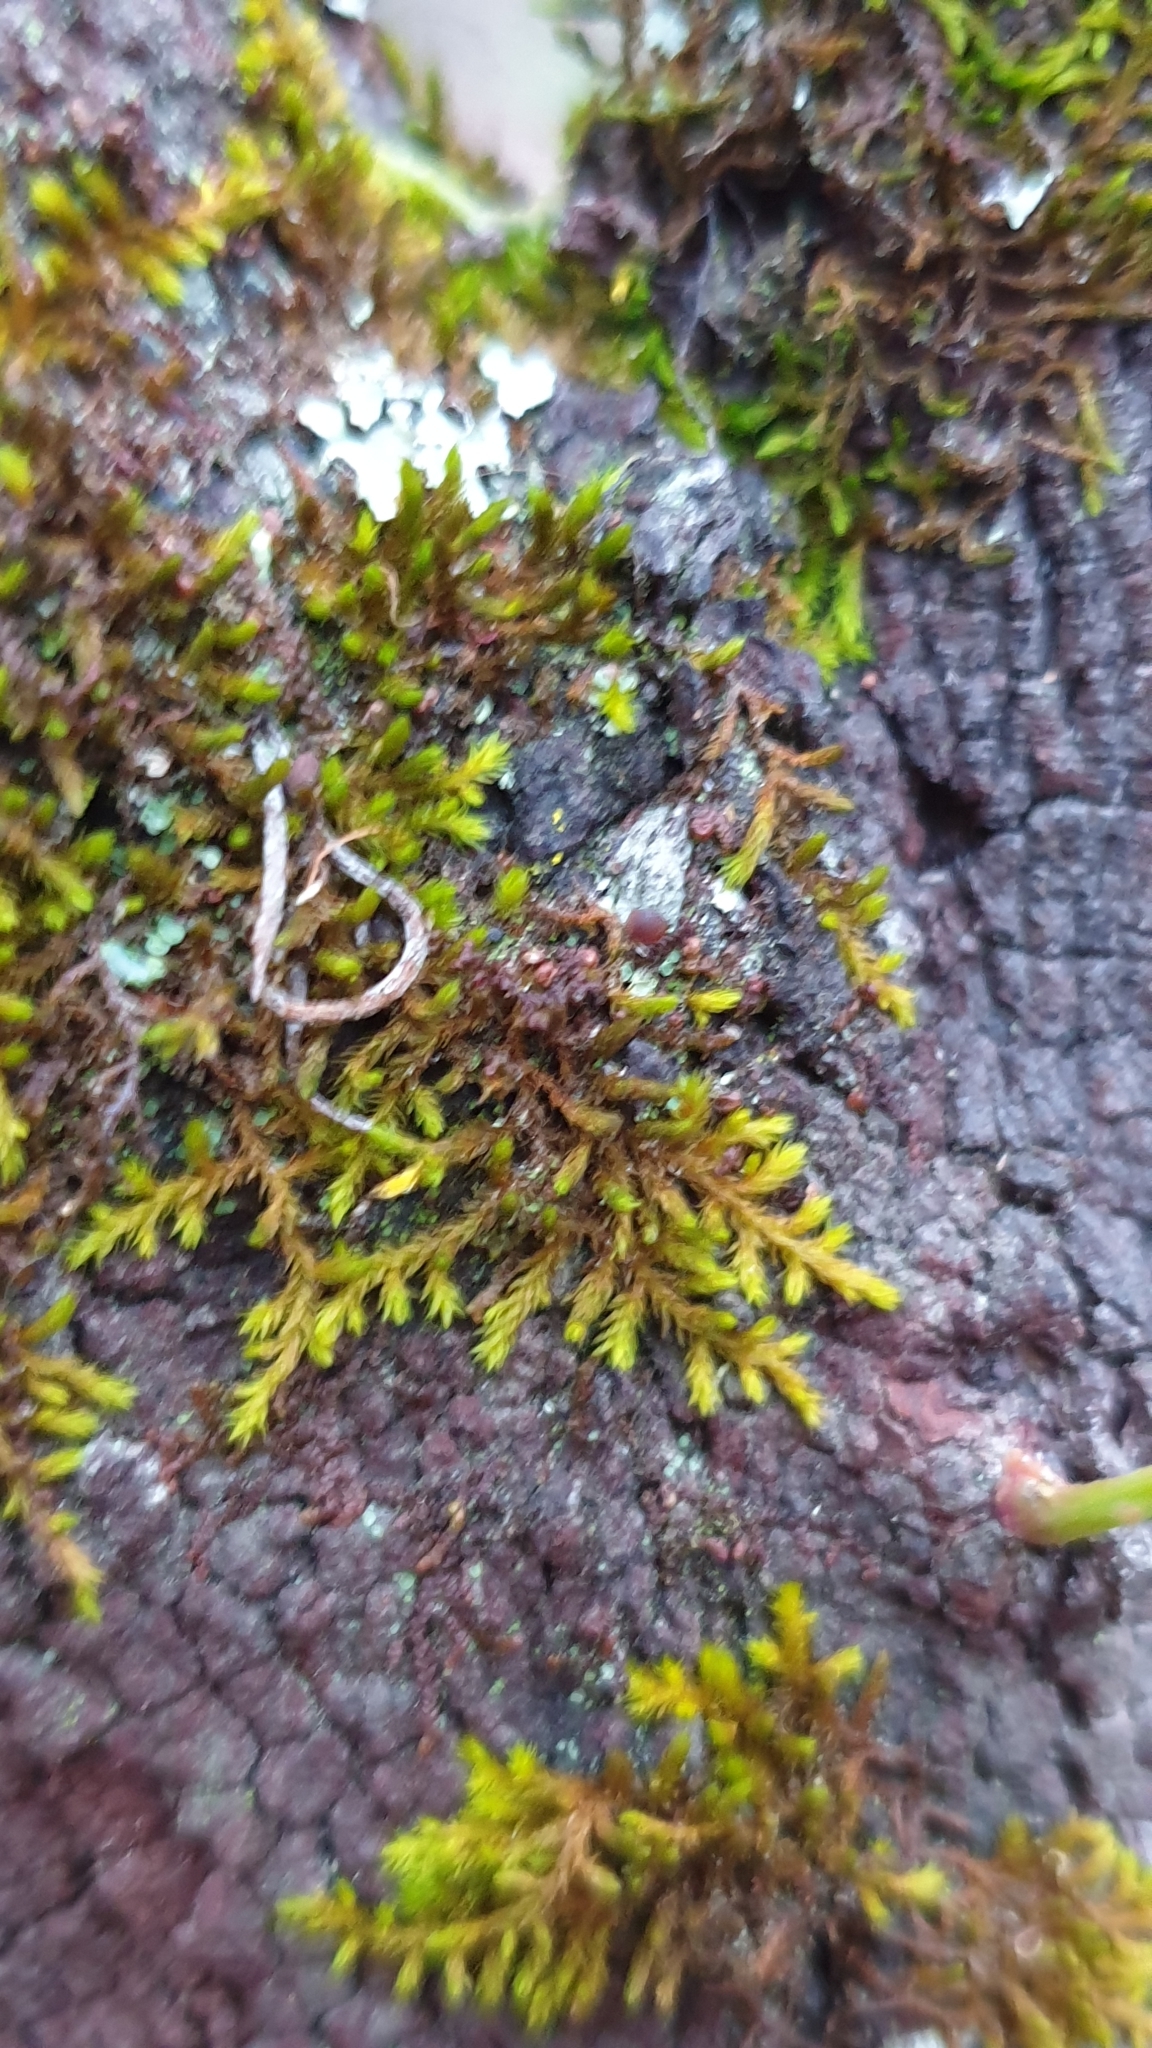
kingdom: Plantae
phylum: Bryophyta
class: Bryopsida
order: Hypnales
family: Thuidiaceae
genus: Thuidiopsis
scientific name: Thuidiopsis sparsa
